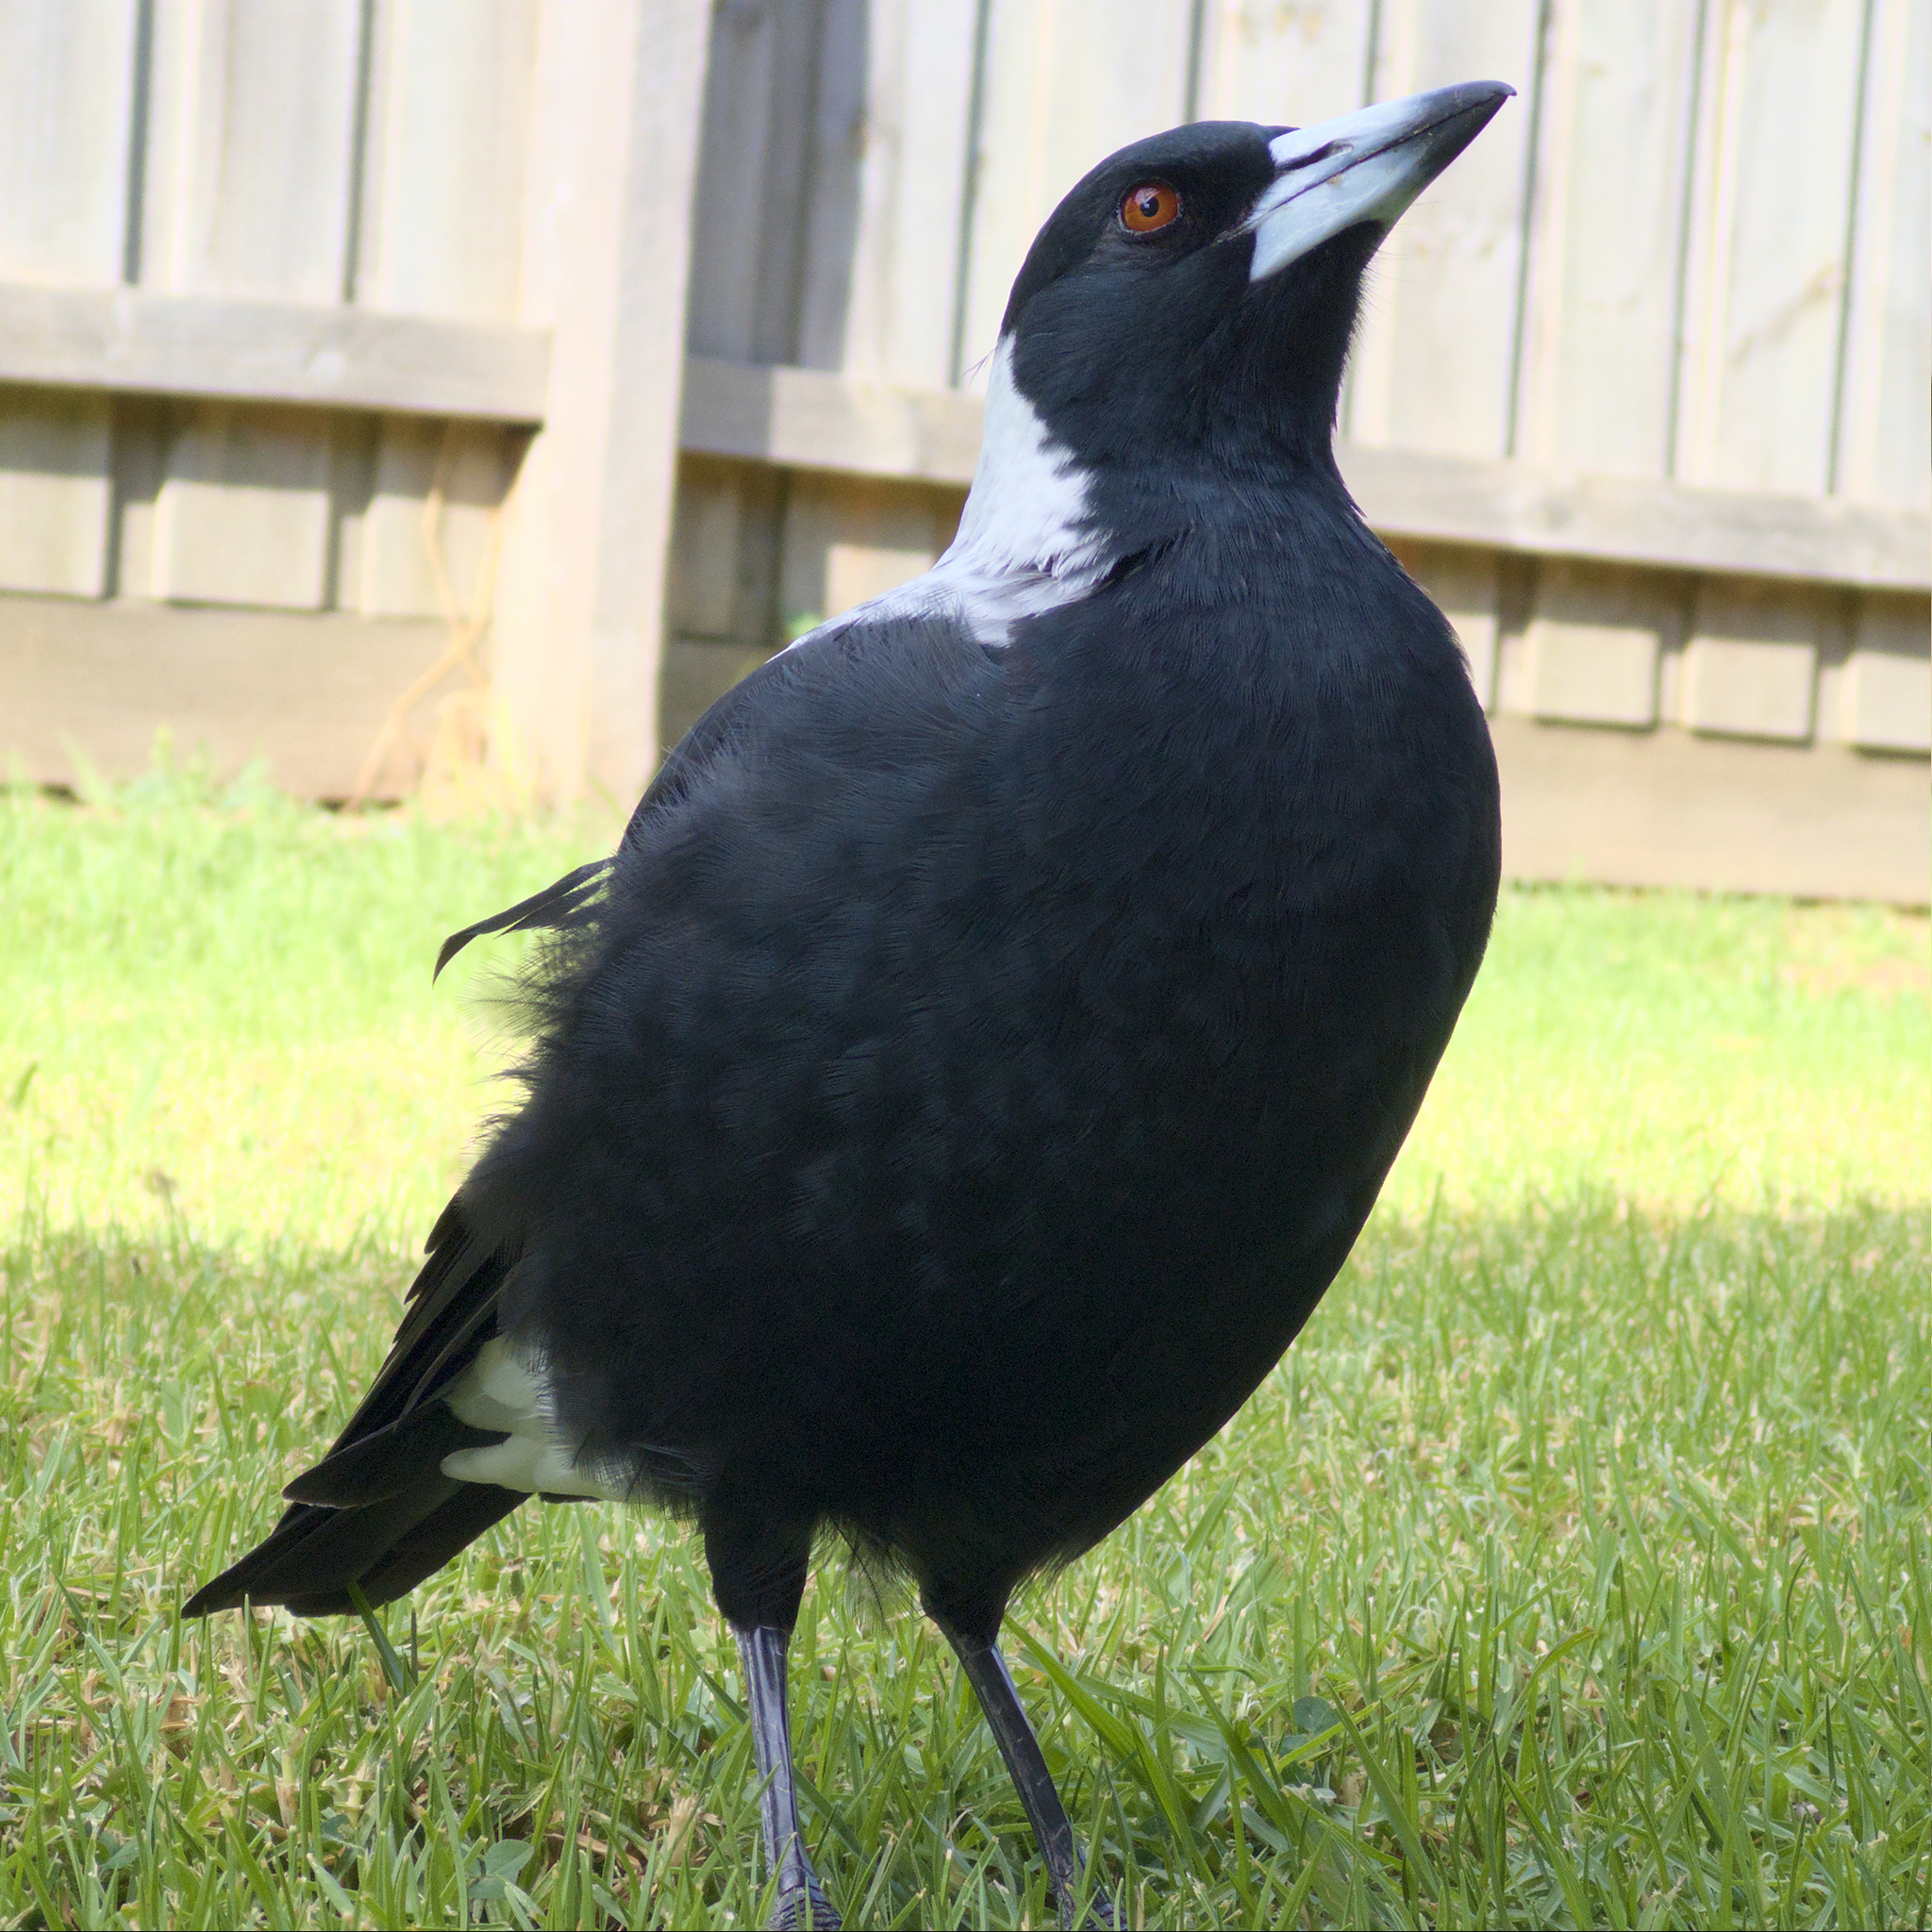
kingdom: Animalia
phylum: Chordata
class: Aves
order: Passeriformes
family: Cracticidae
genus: Gymnorhina
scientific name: Gymnorhina tibicen
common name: Australian magpie
